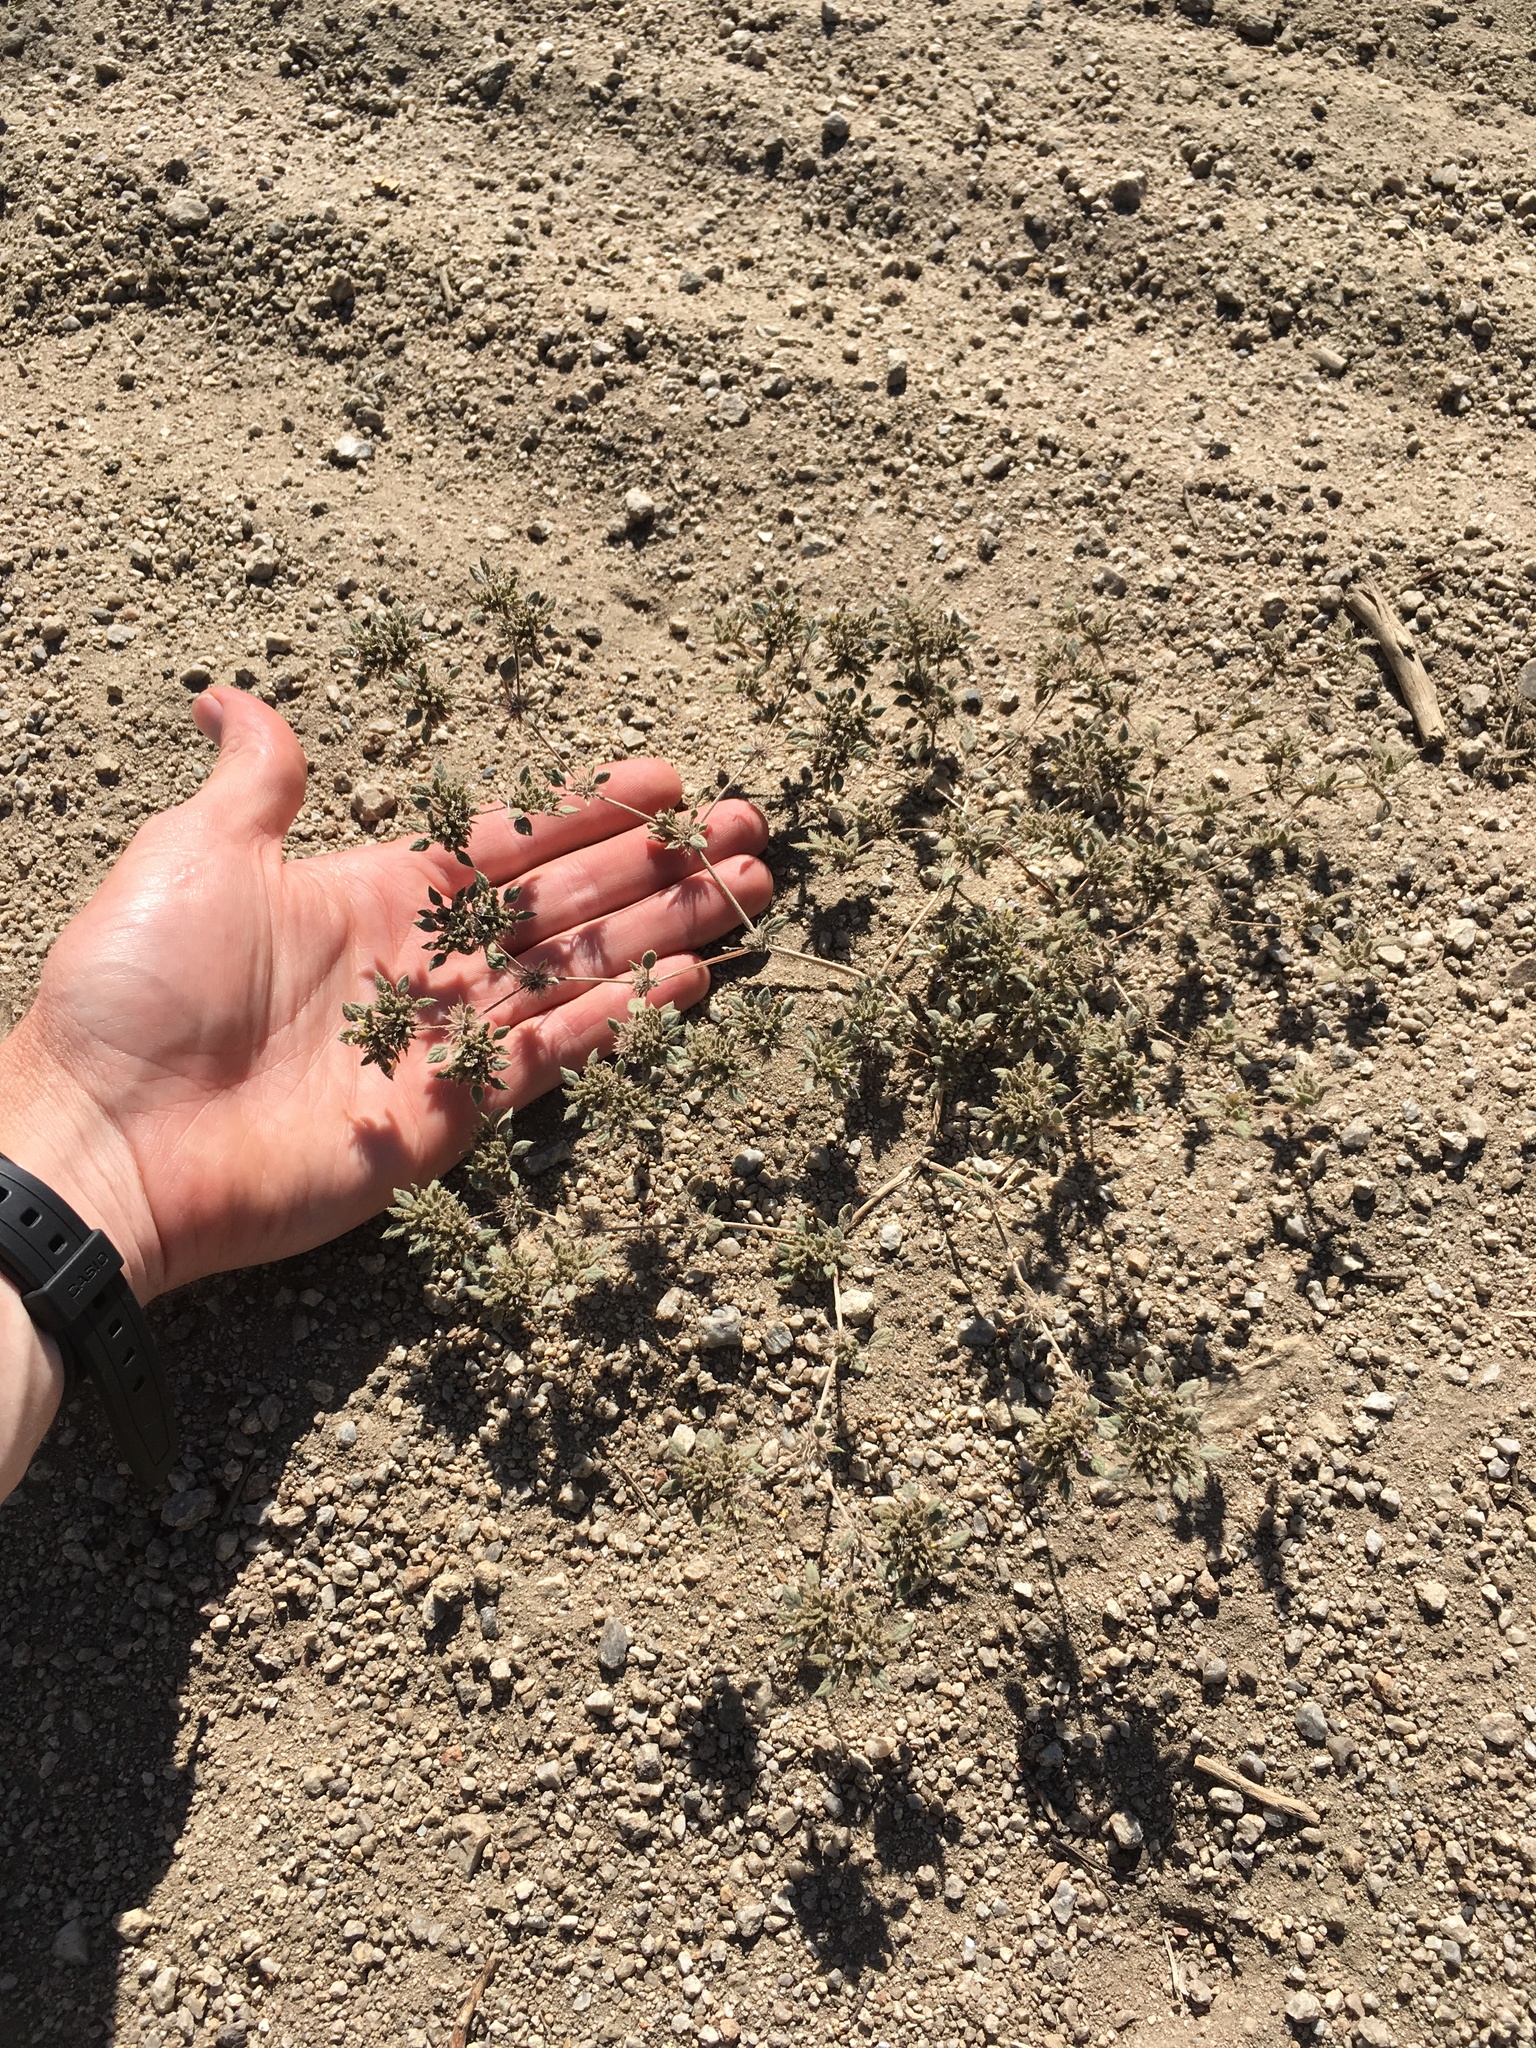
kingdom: Plantae
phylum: Tracheophyta
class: Magnoliopsida
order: Boraginales
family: Ehretiaceae
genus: Tiquilia
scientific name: Tiquilia nuttallii
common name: Rosette tiquilia
